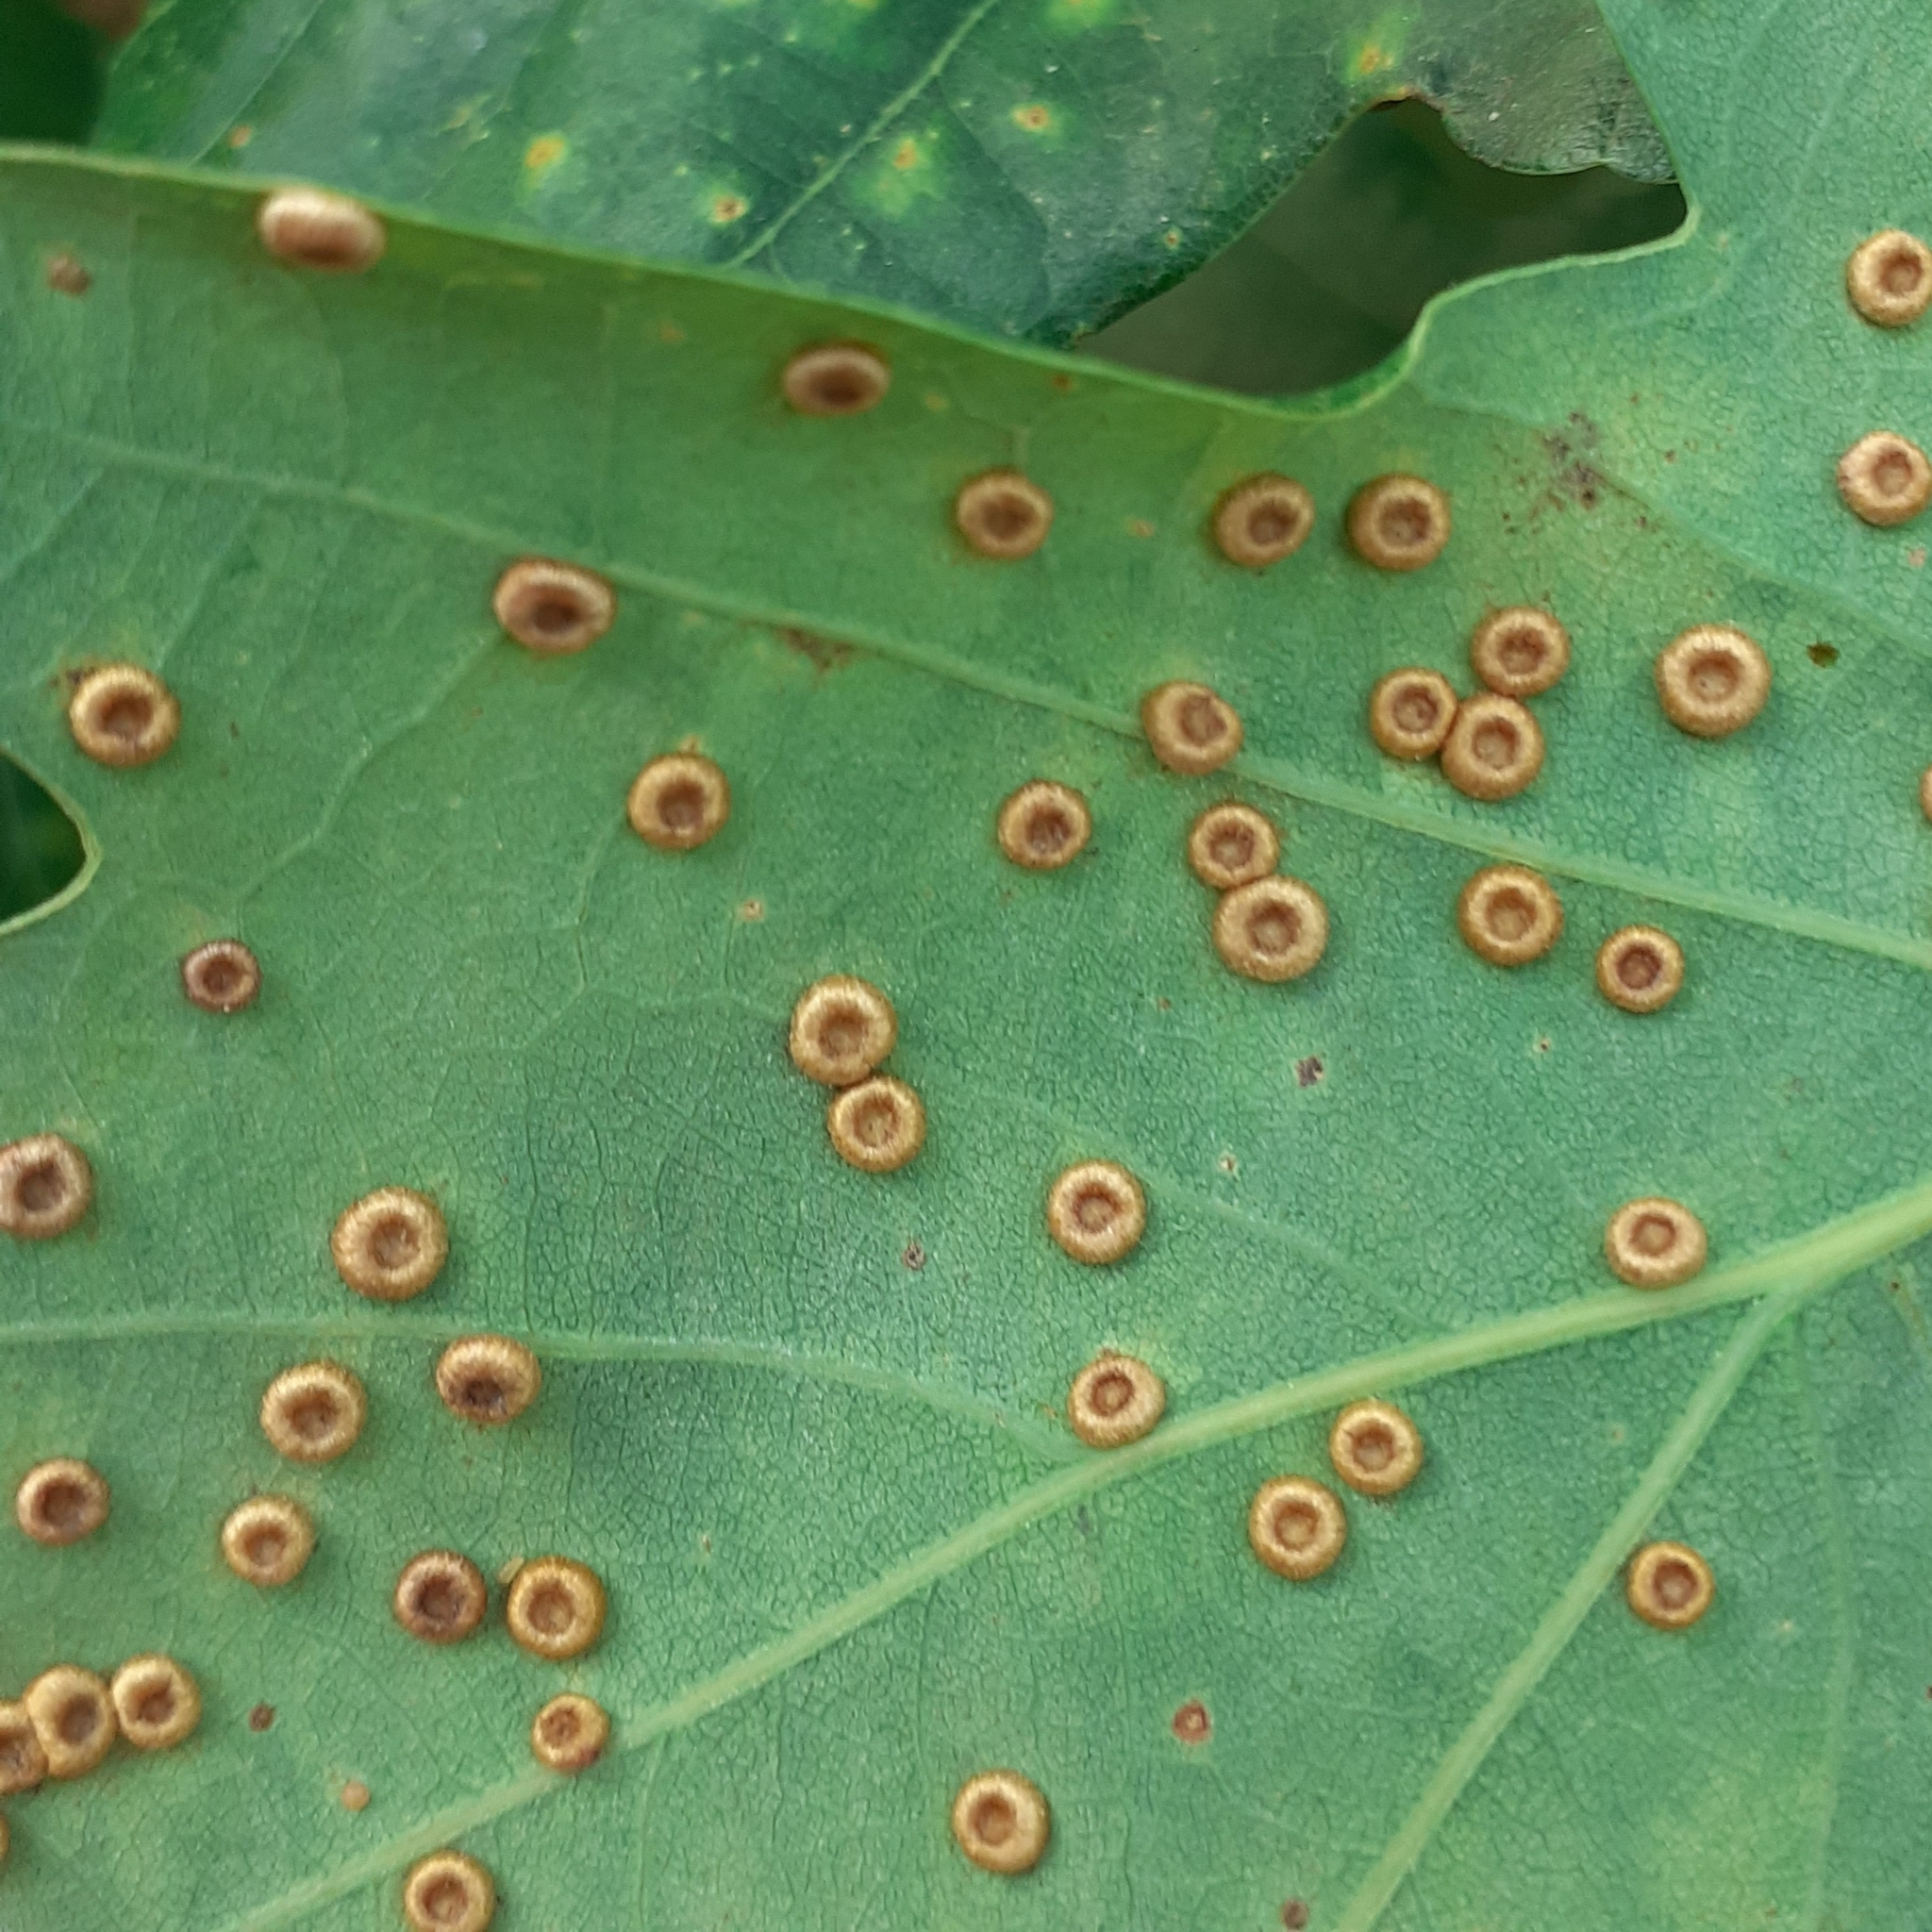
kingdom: Animalia
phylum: Arthropoda
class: Insecta
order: Hymenoptera
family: Cynipidae
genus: Neuroterus
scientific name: Neuroterus numismalis
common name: Silk-button spangle gall
